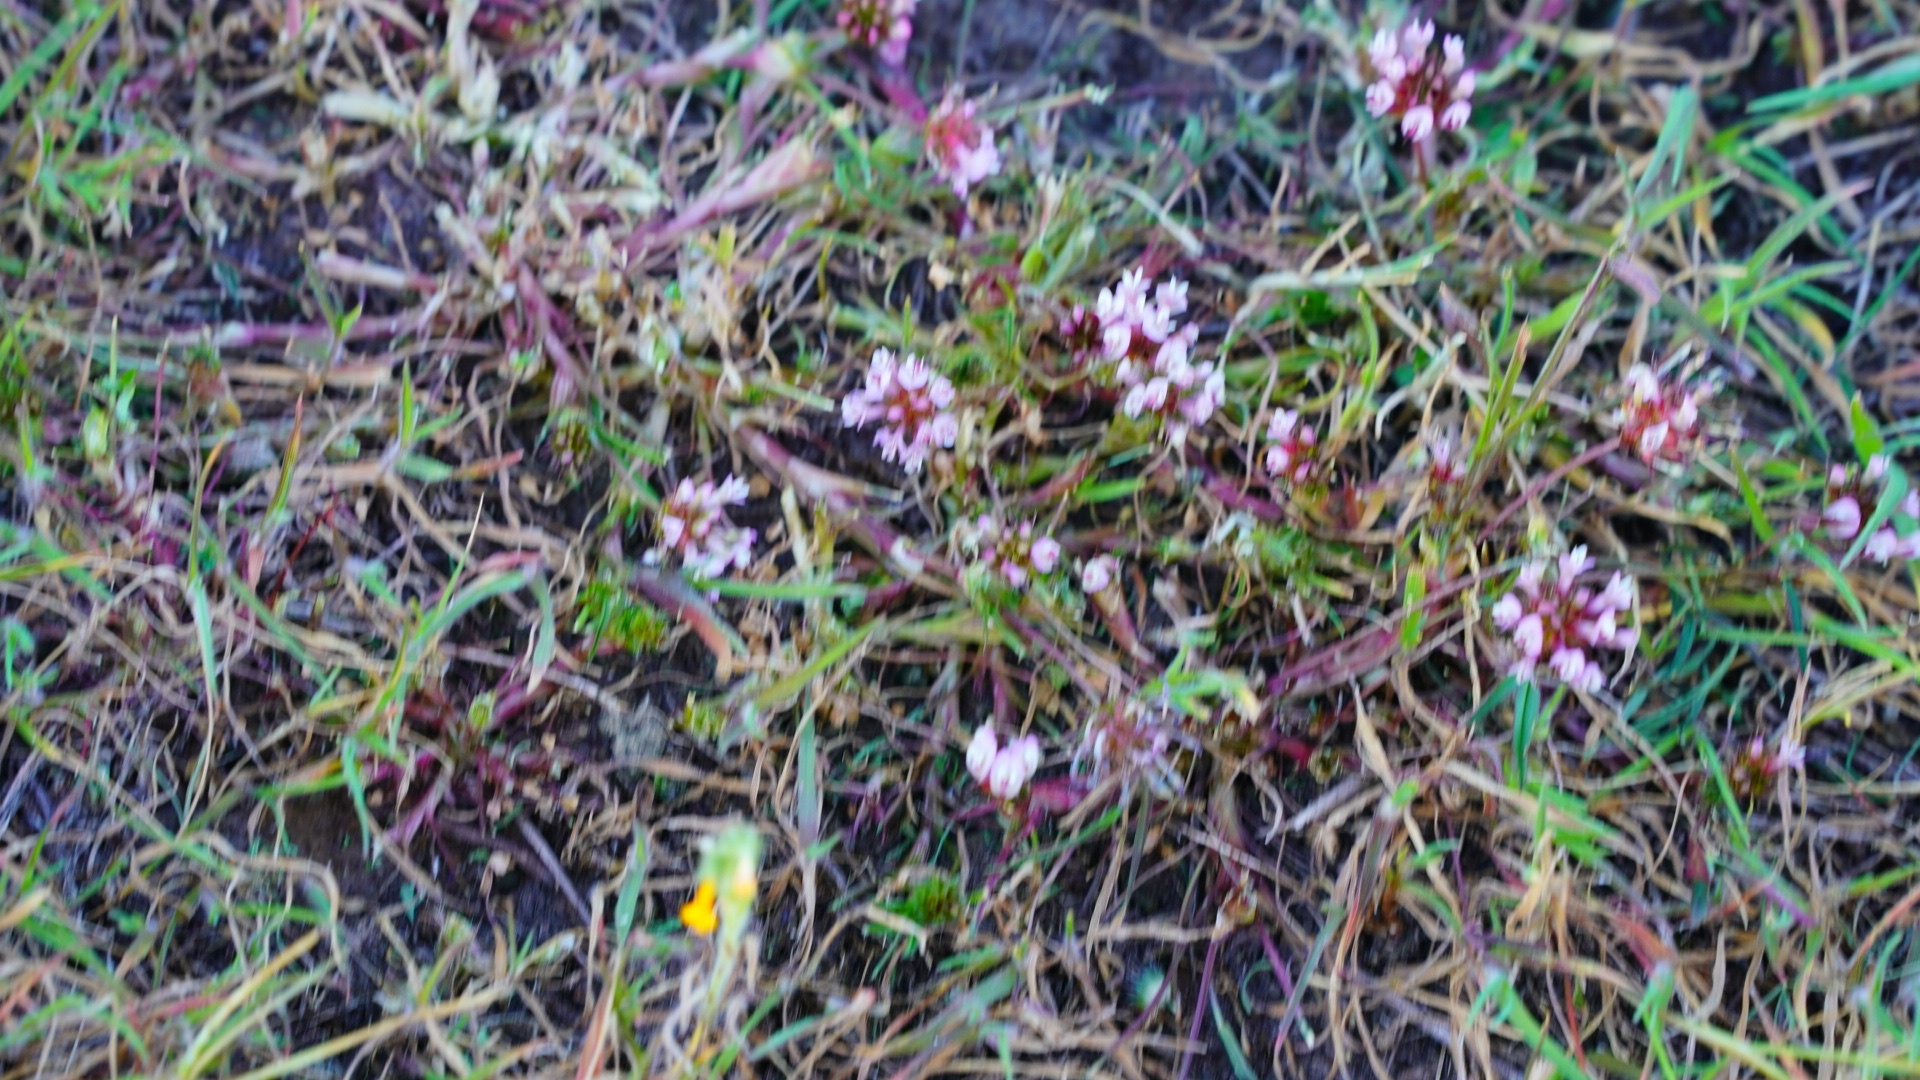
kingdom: Plantae
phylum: Tracheophyta
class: Magnoliopsida
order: Fabales
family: Fabaceae
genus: Trifolium
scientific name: Trifolium willdenovii
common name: Tomcat clover
